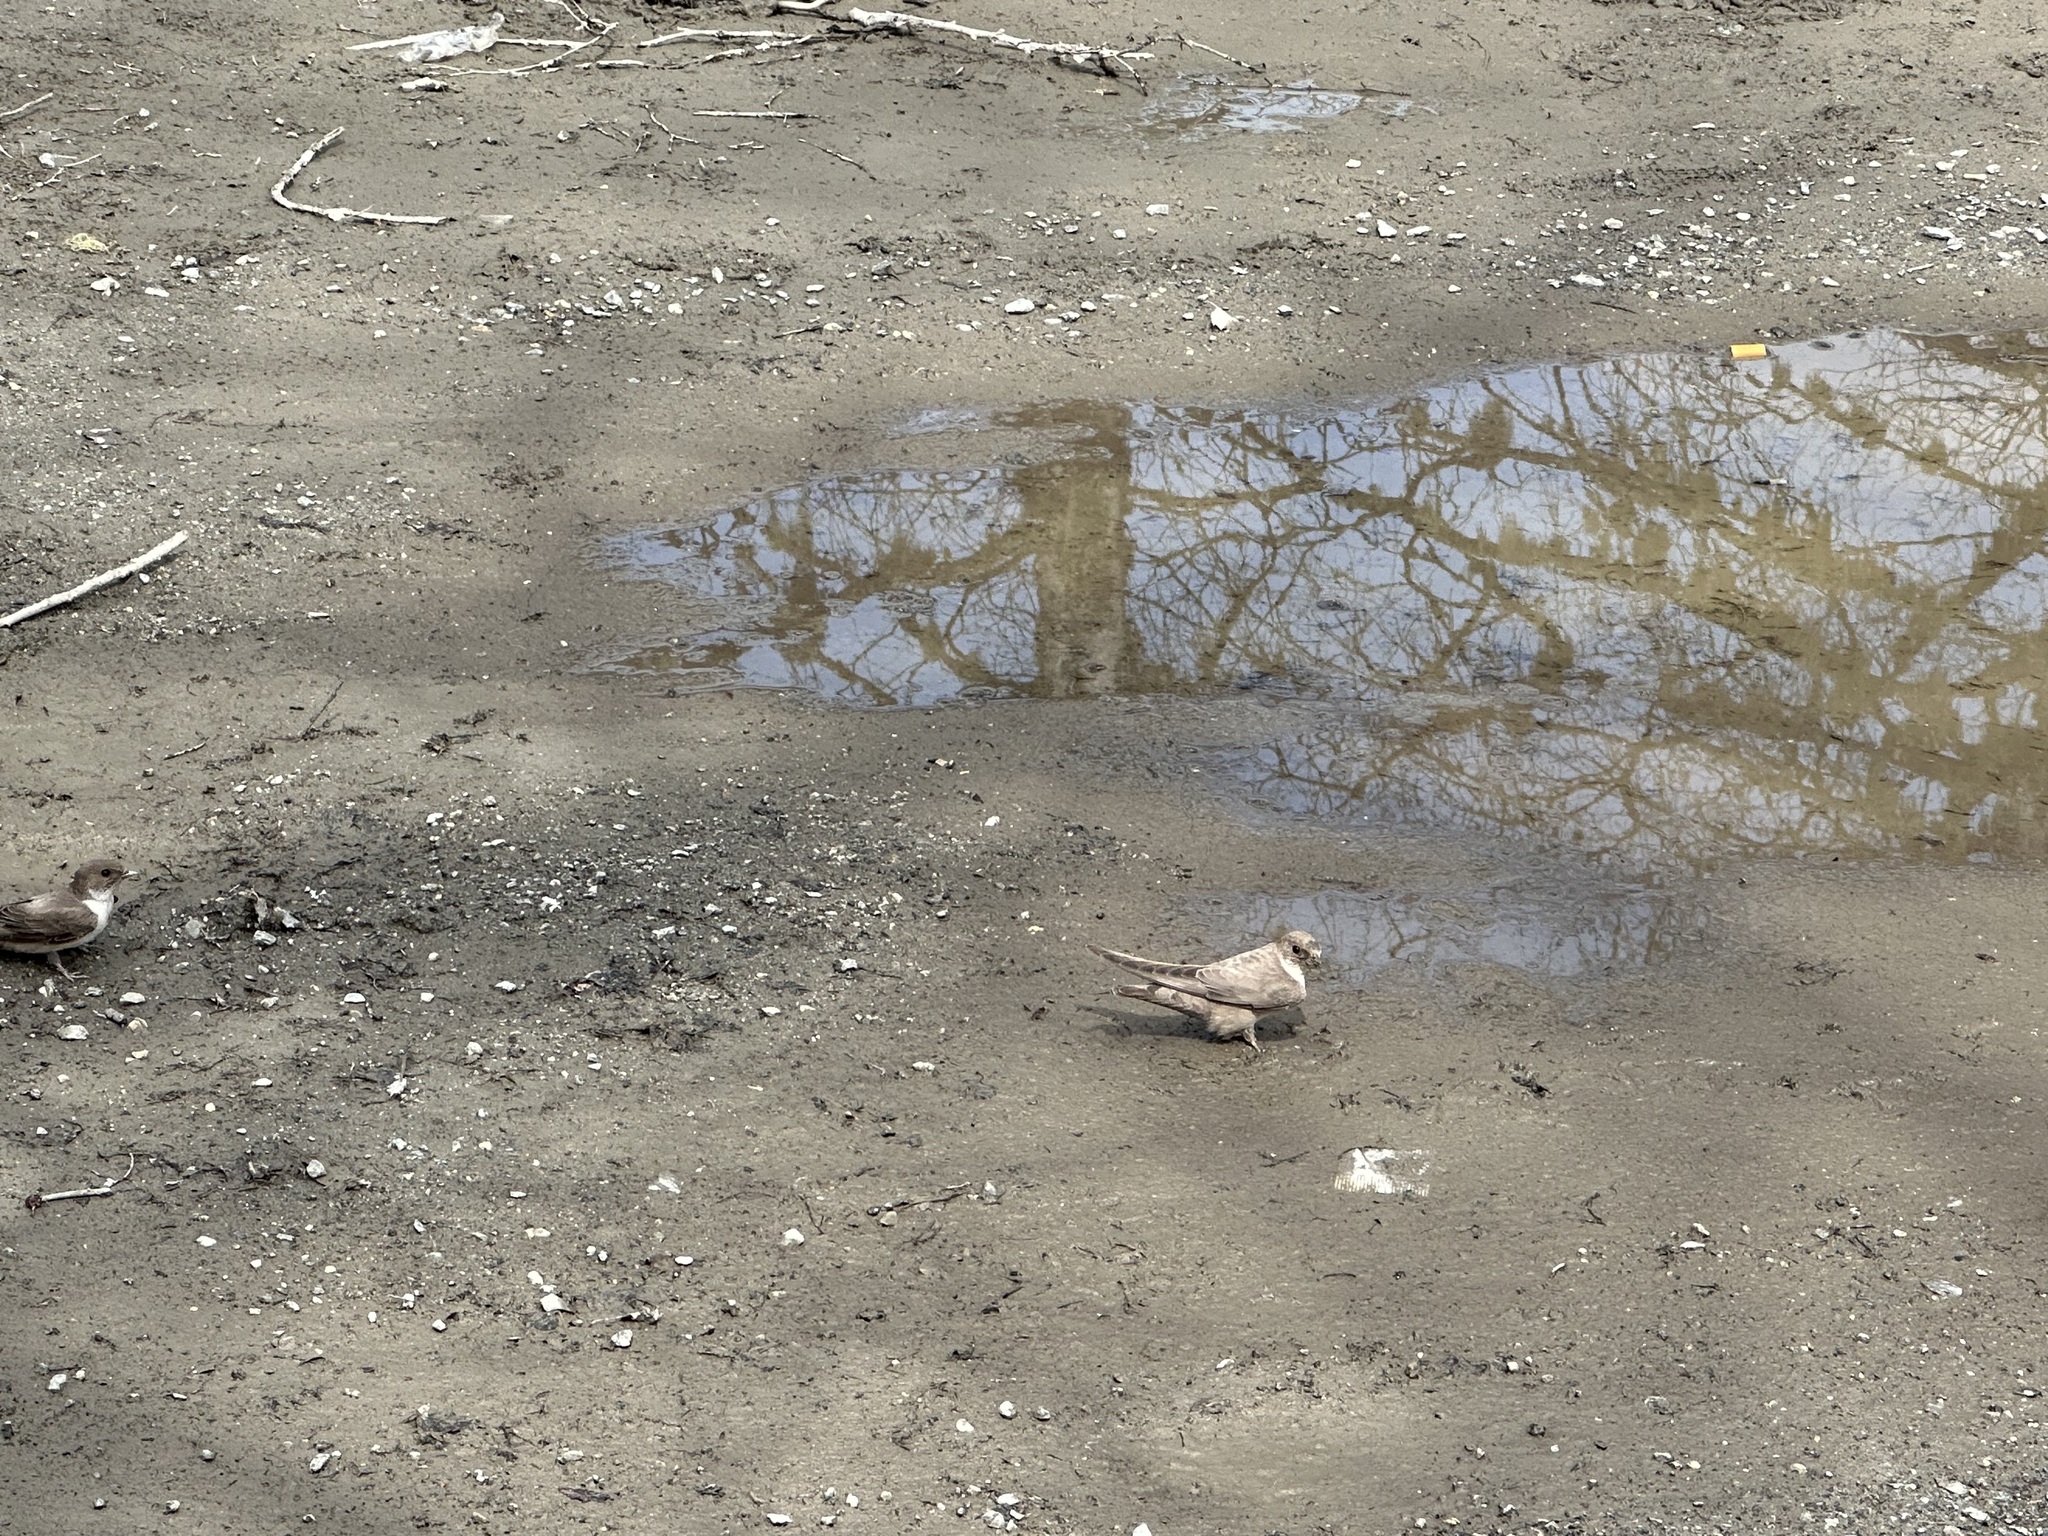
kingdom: Animalia
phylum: Chordata
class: Aves
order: Passeriformes
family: Hirundinidae
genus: Ptyonoprogne
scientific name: Ptyonoprogne rupestris
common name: Eurasian crag martin
